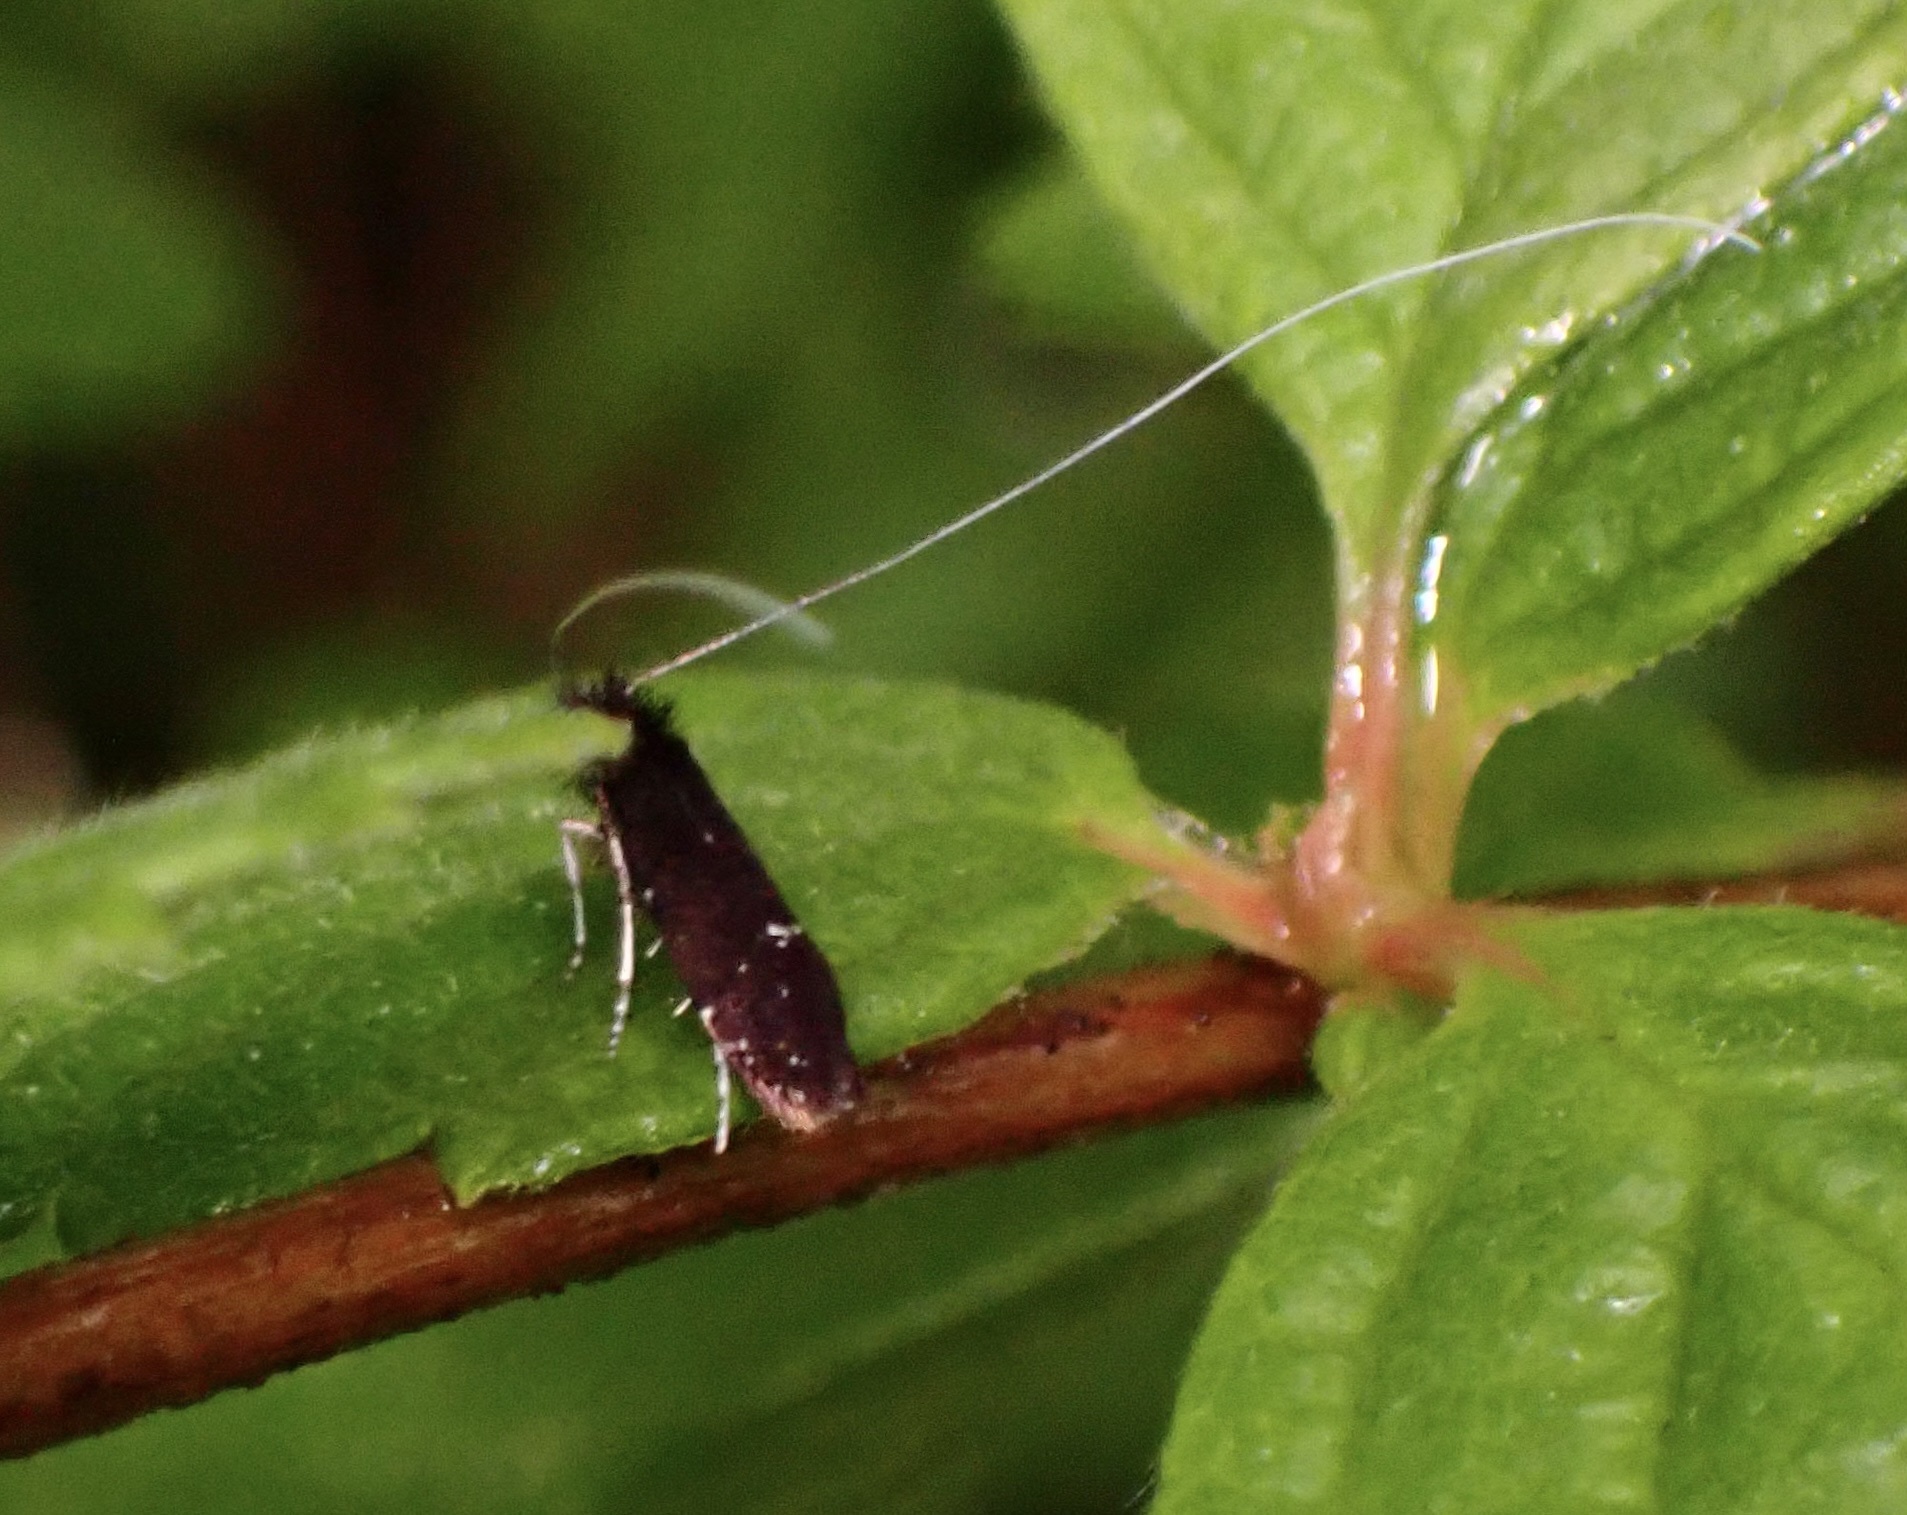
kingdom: Animalia
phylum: Arthropoda
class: Insecta
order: Lepidoptera
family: Adelidae
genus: Adela
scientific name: Adela septentrionella
